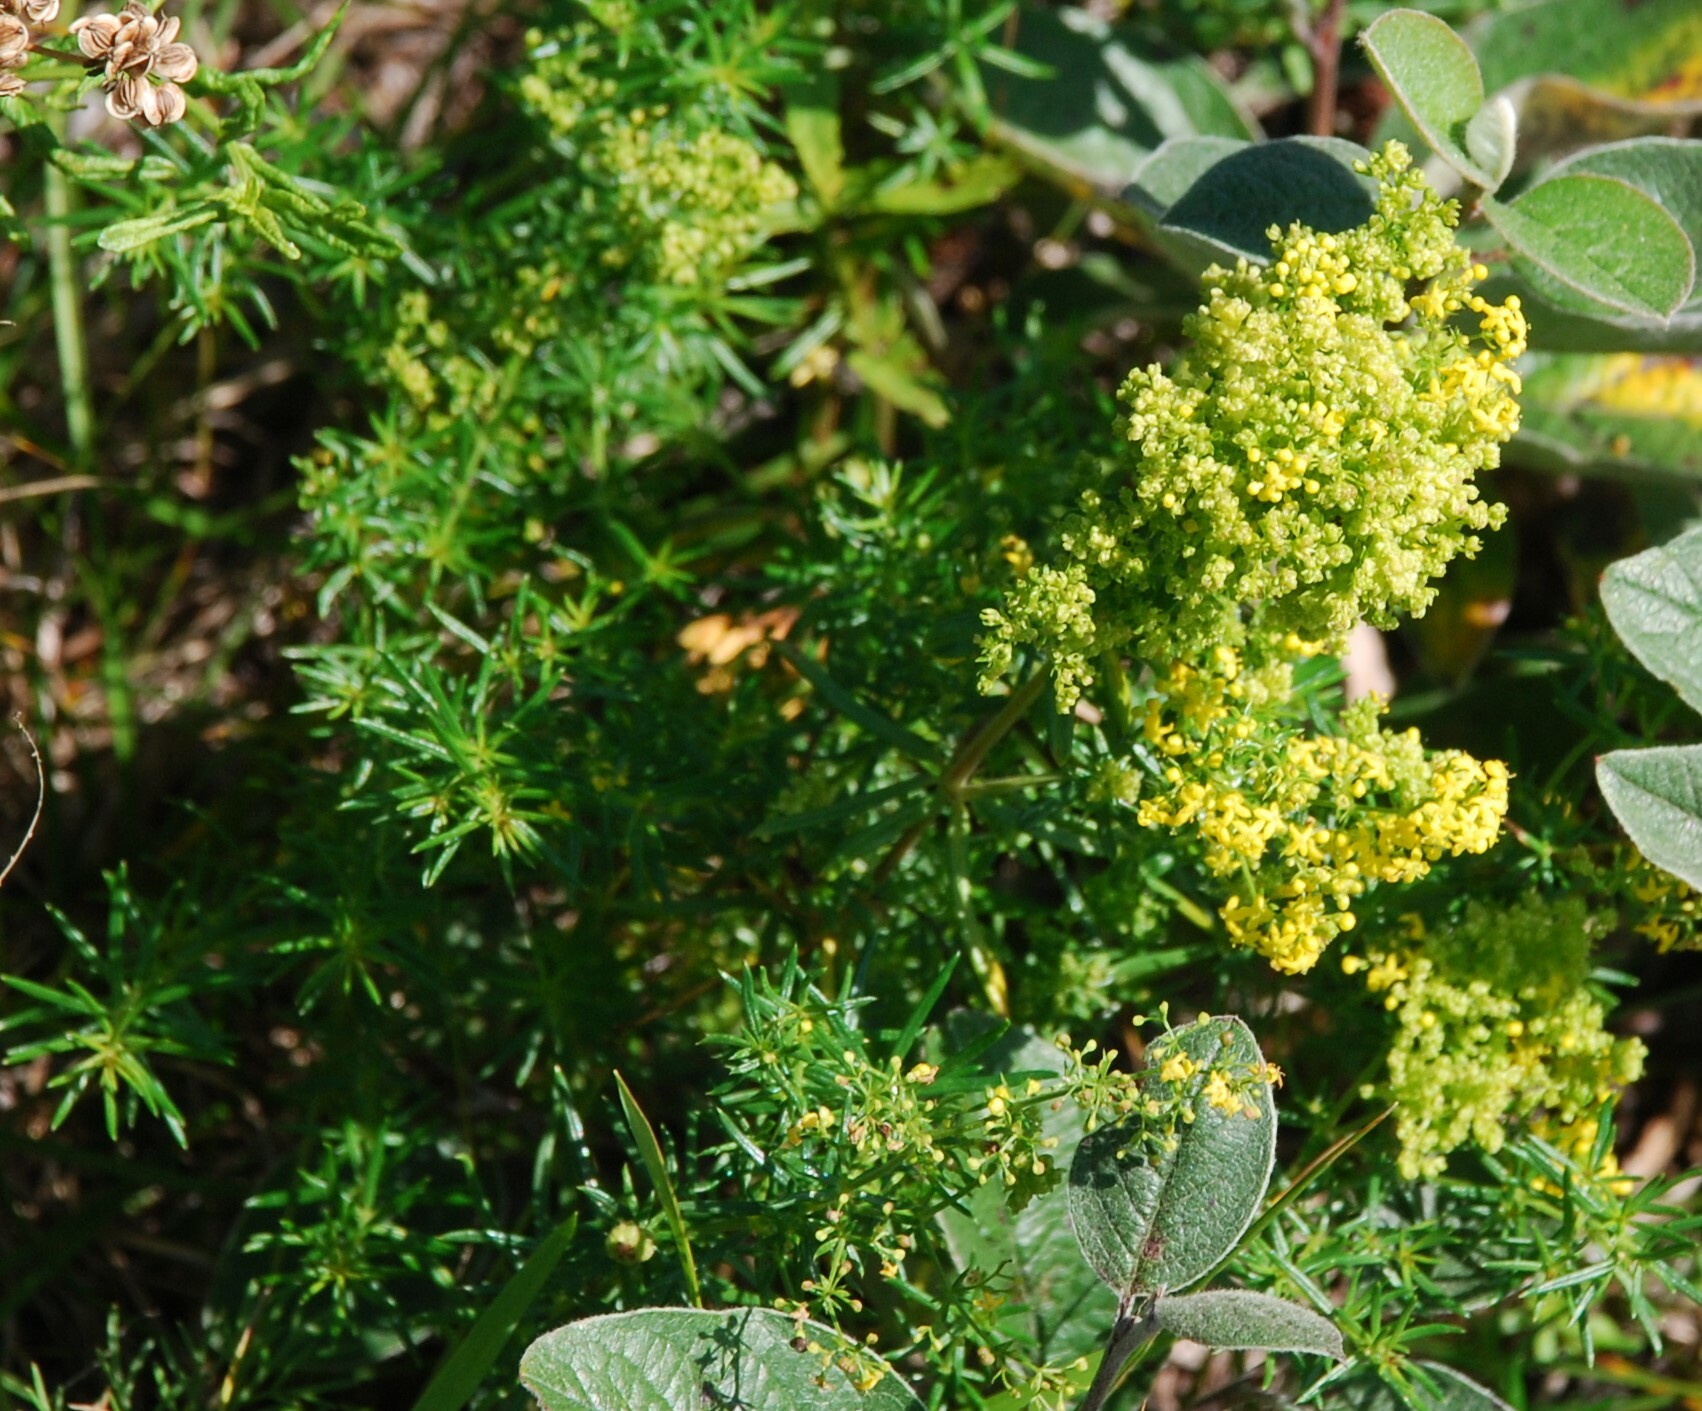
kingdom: Plantae
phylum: Tracheophyta
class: Magnoliopsida
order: Gentianales
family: Rubiaceae
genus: Galium
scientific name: Galium verum
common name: Lady's bedstraw
